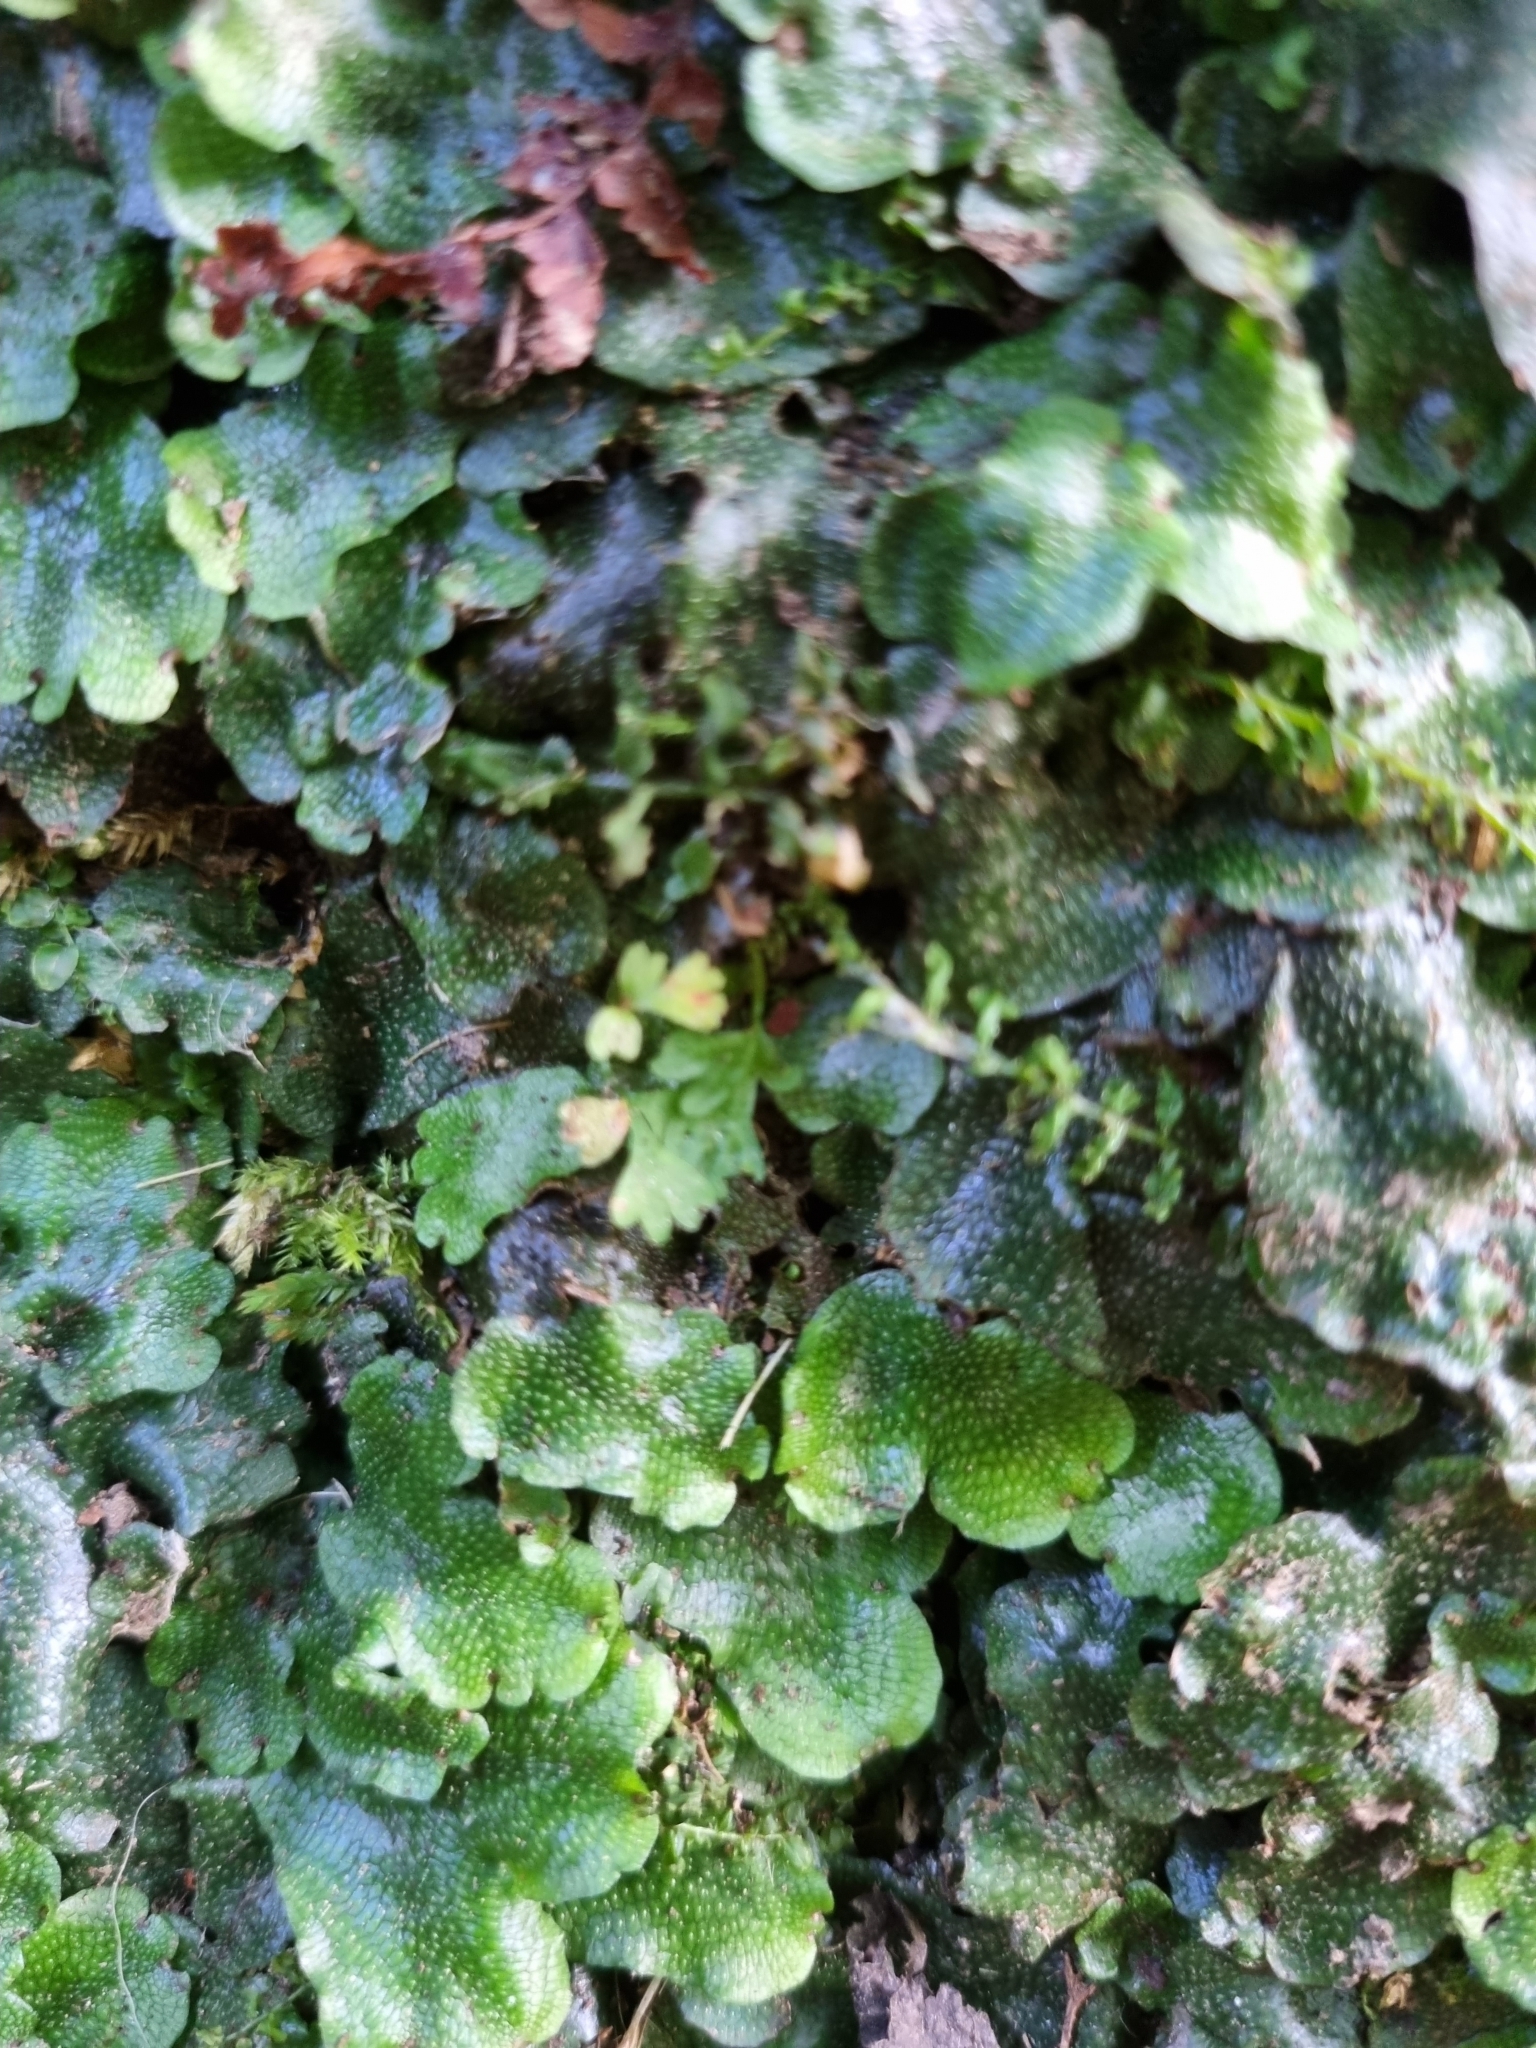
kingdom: Plantae
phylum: Marchantiophyta
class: Marchantiopsida
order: Marchantiales
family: Conocephalaceae
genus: Conocephalum
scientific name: Conocephalum conicum
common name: Great scented liverwort
